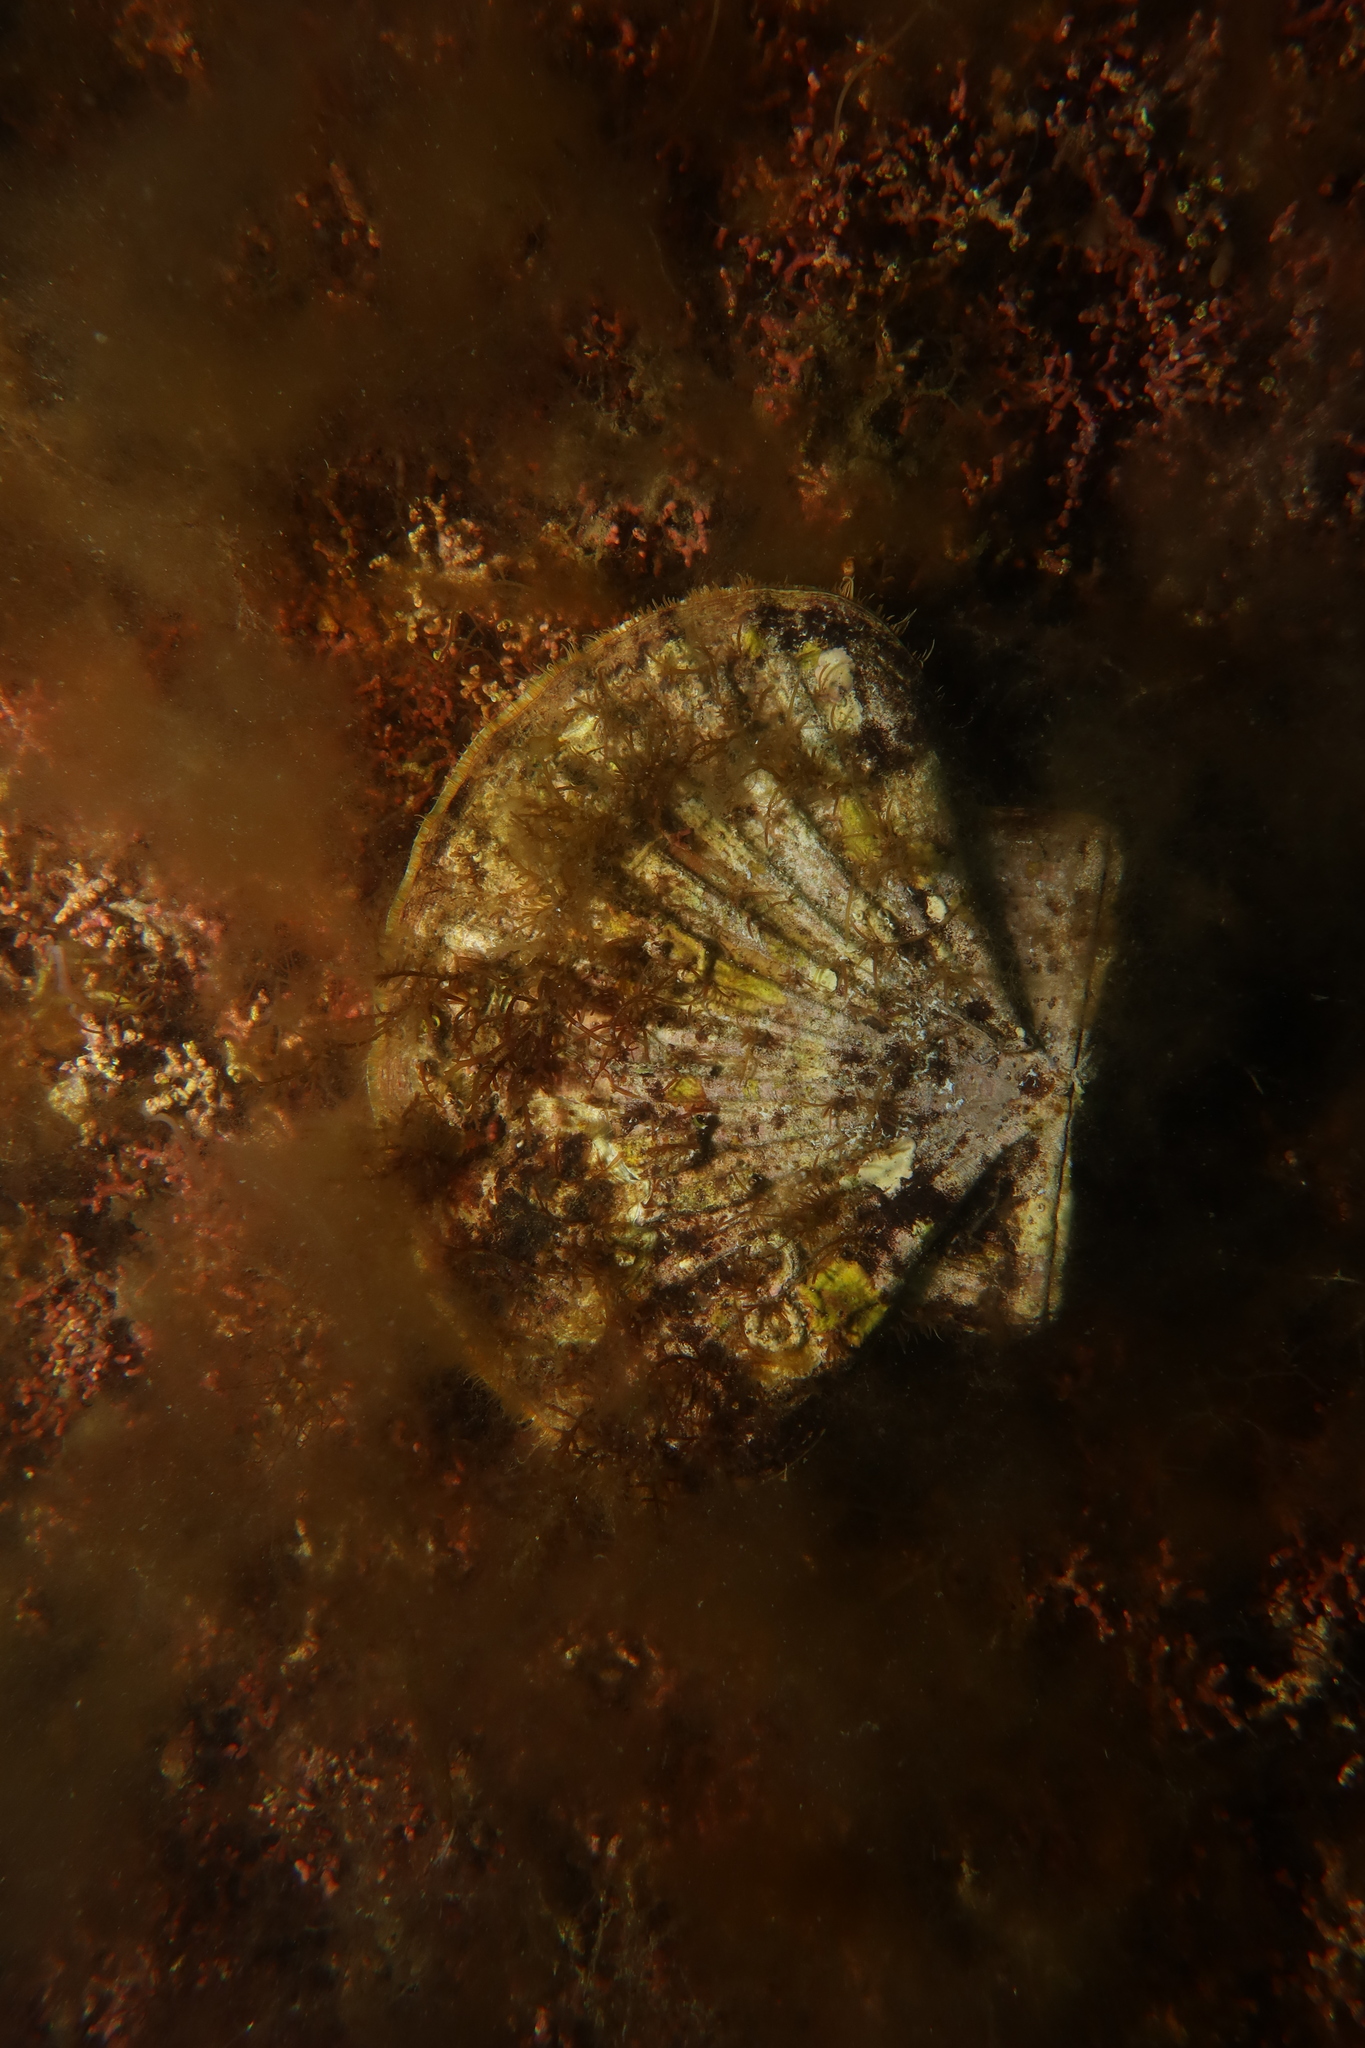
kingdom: Animalia
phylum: Mollusca
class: Bivalvia
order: Pectinida
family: Pectinidae
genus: Pecten
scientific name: Pecten maximus
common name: Great scallop
